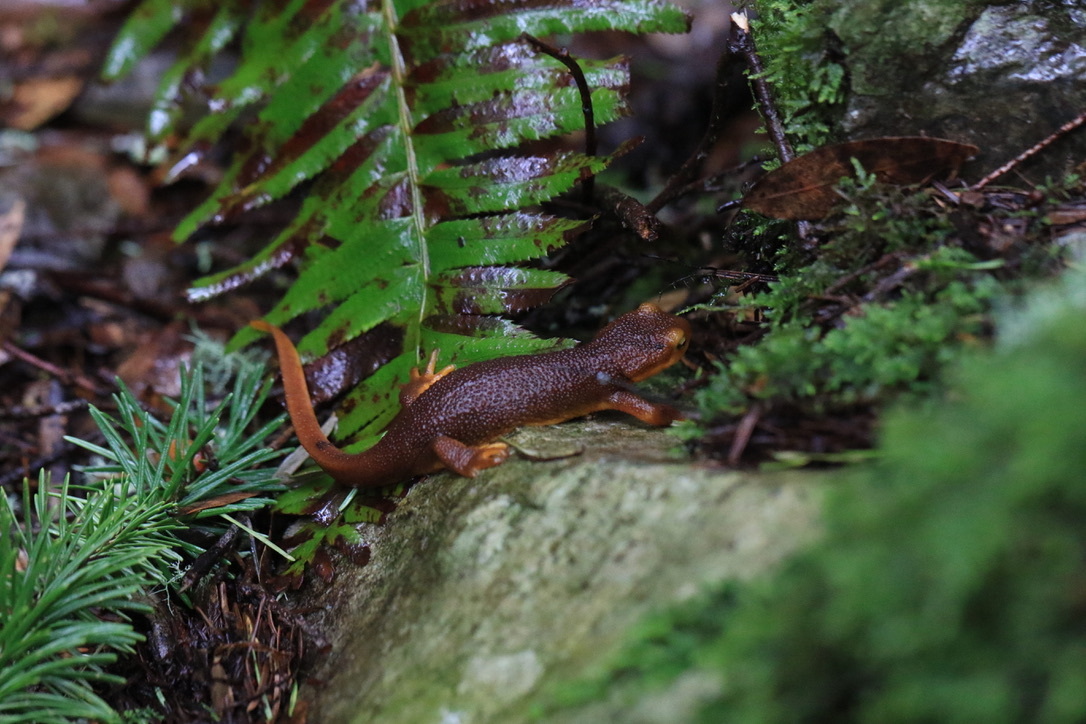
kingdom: Animalia
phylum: Chordata
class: Amphibia
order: Caudata
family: Salamandridae
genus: Taricha
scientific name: Taricha torosa
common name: California newt
